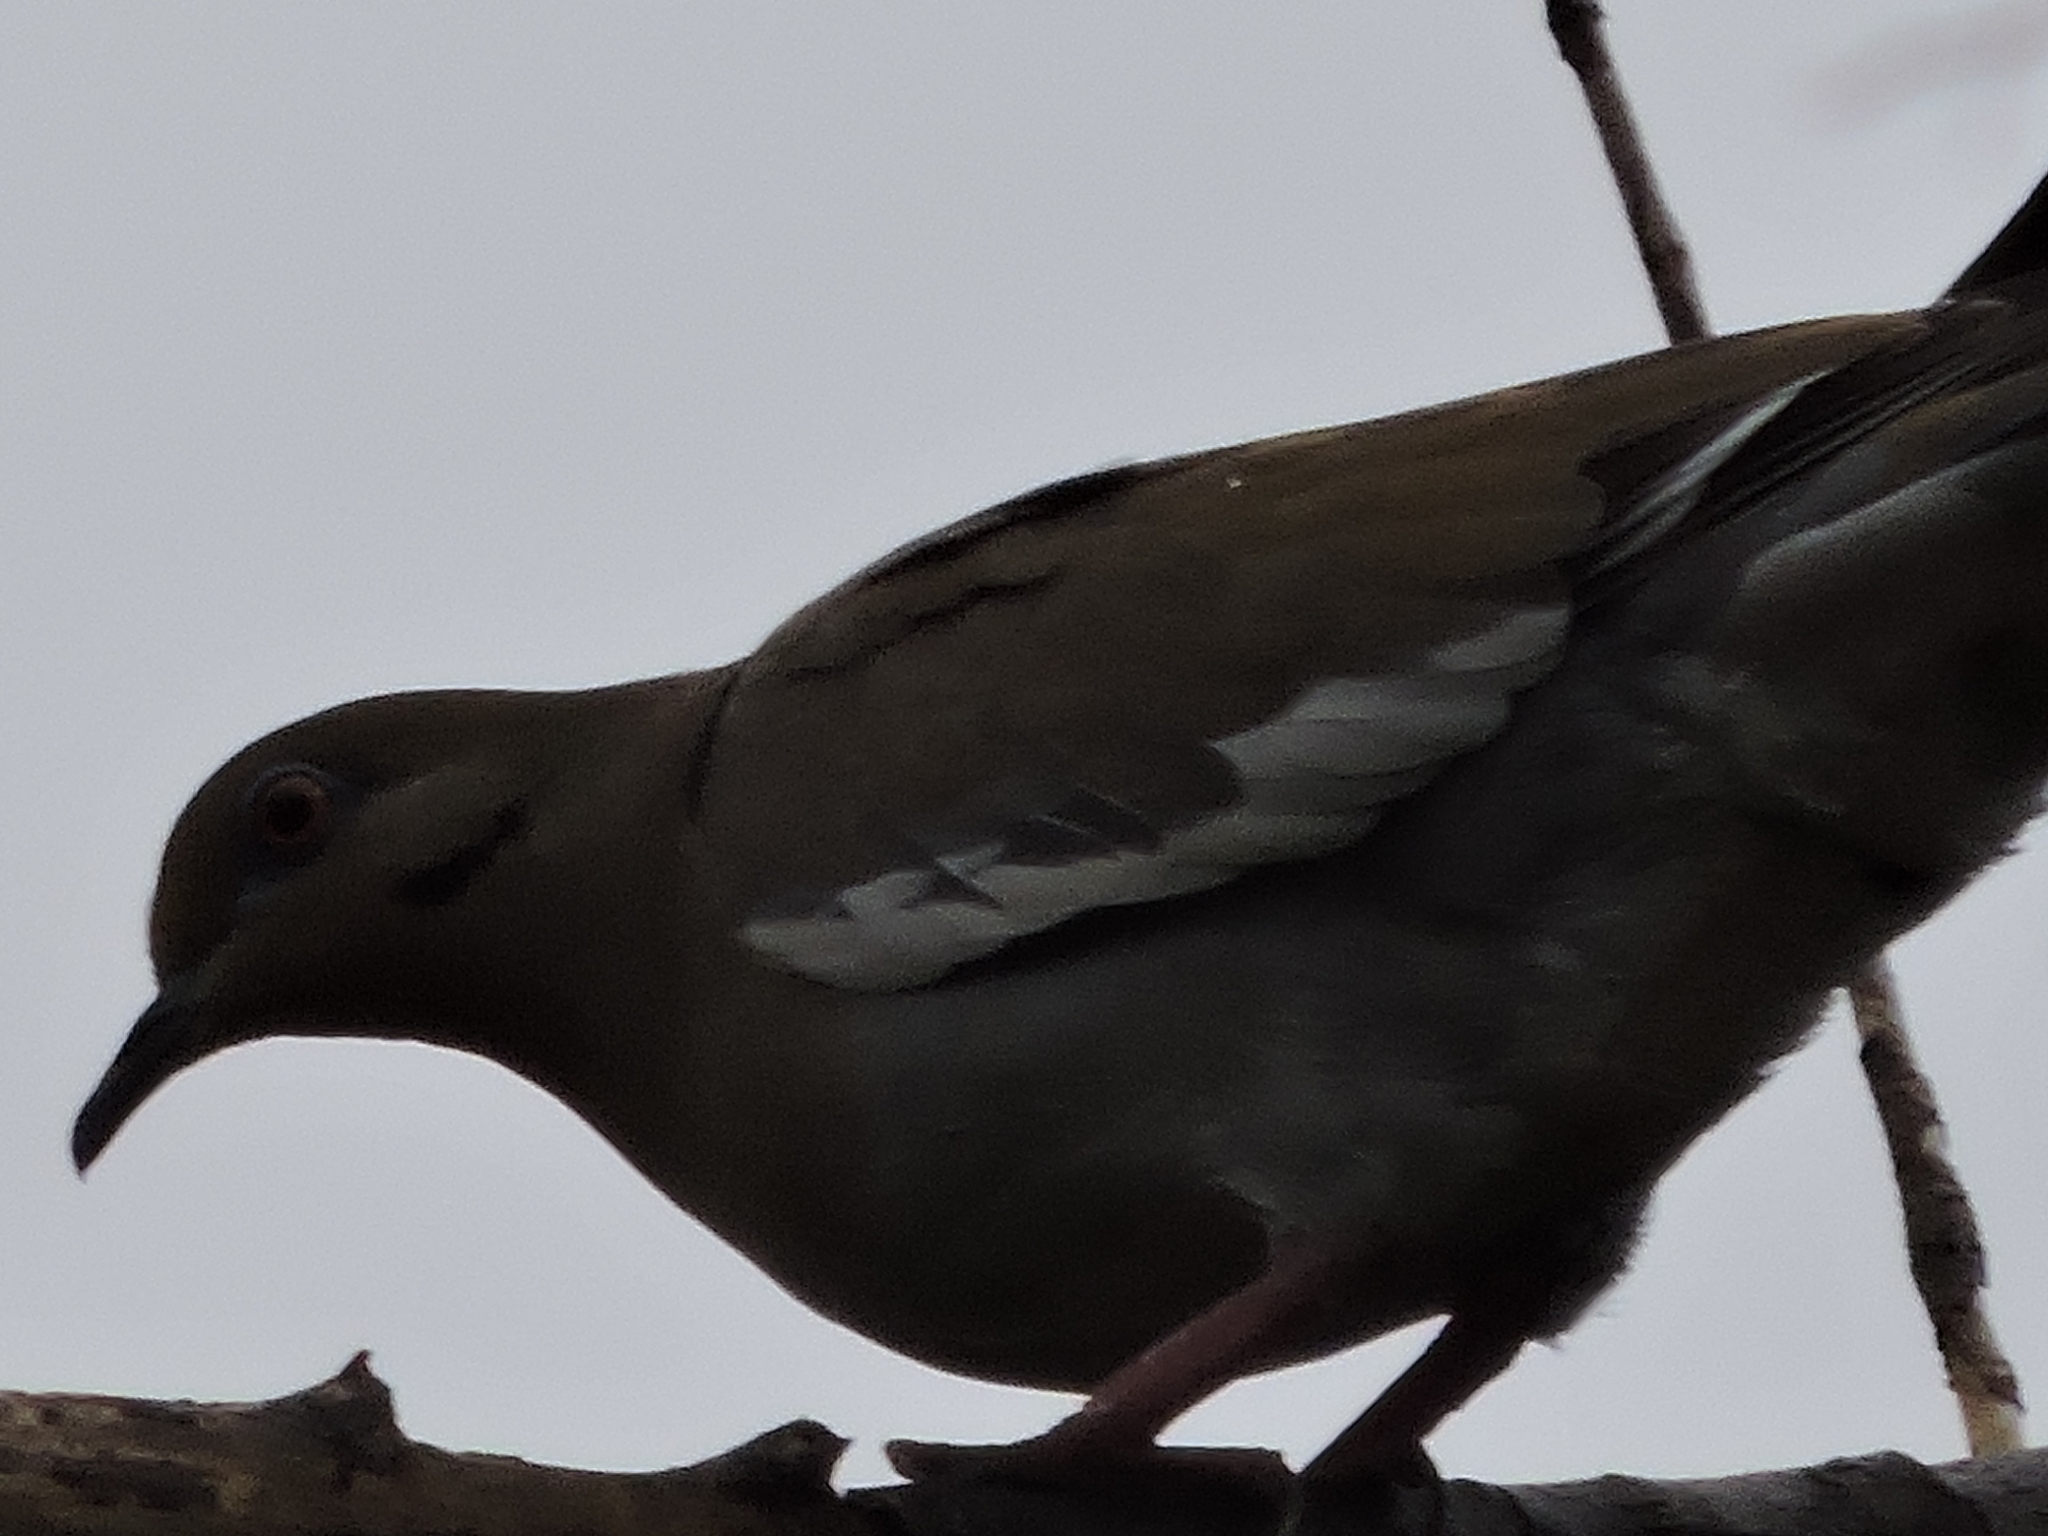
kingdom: Animalia
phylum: Chordata
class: Aves
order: Columbiformes
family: Columbidae
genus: Zenaida
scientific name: Zenaida asiatica
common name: White-winged dove
